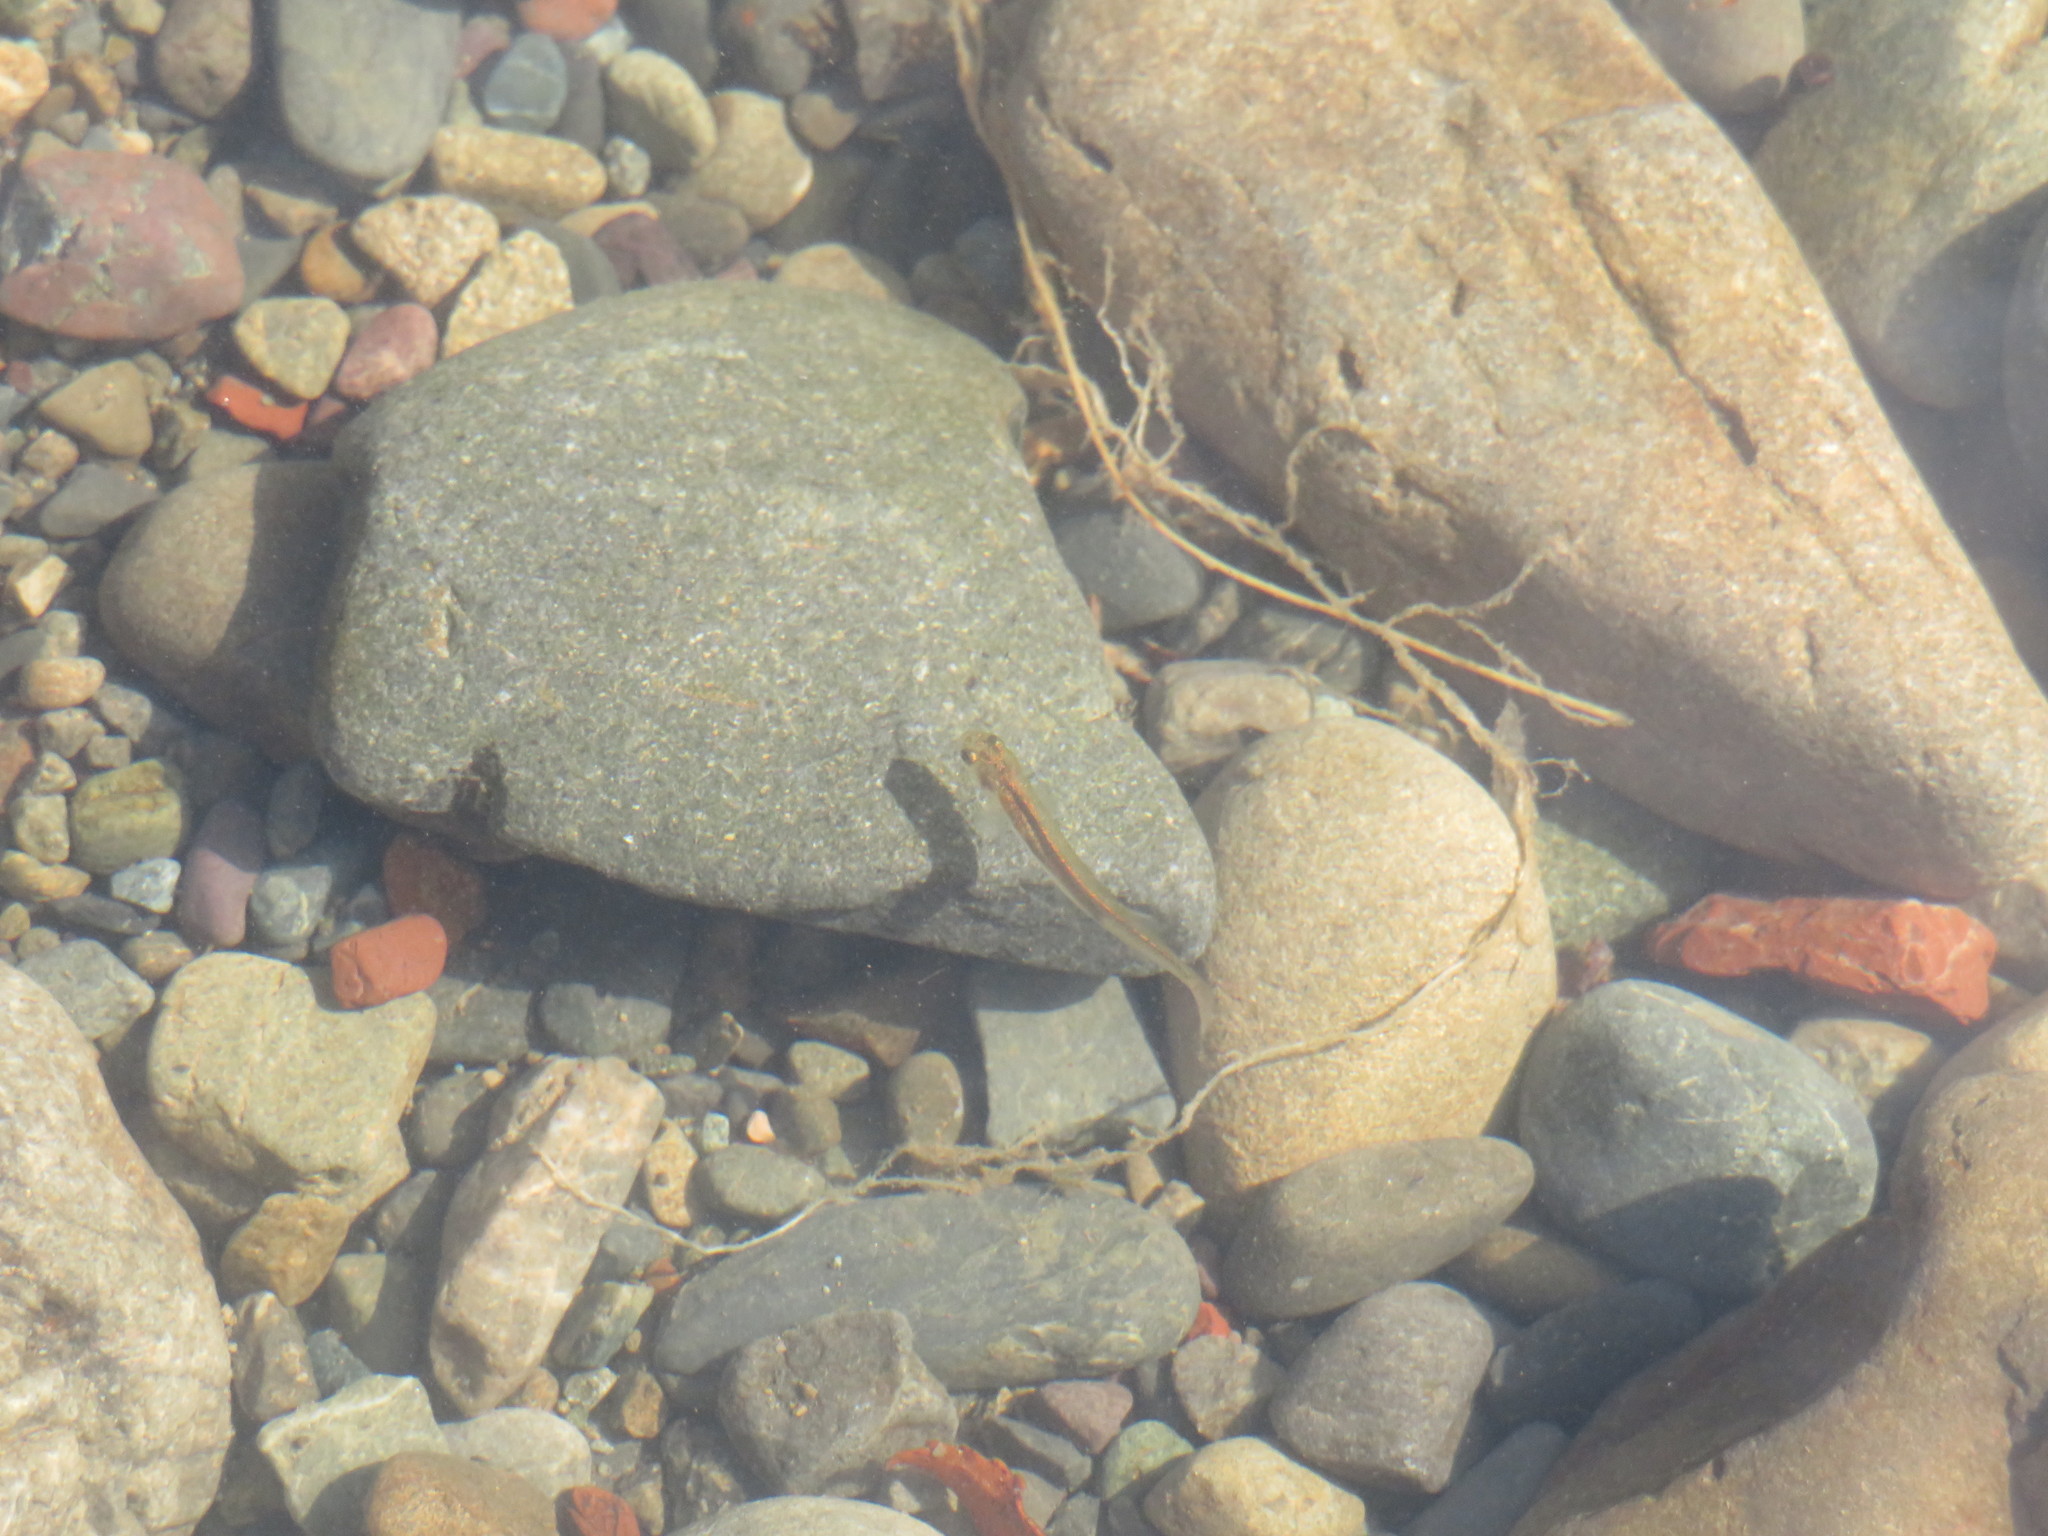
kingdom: Animalia
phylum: Chordata
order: Osmeriformes
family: Galaxiidae
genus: Galaxias
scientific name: Galaxias
